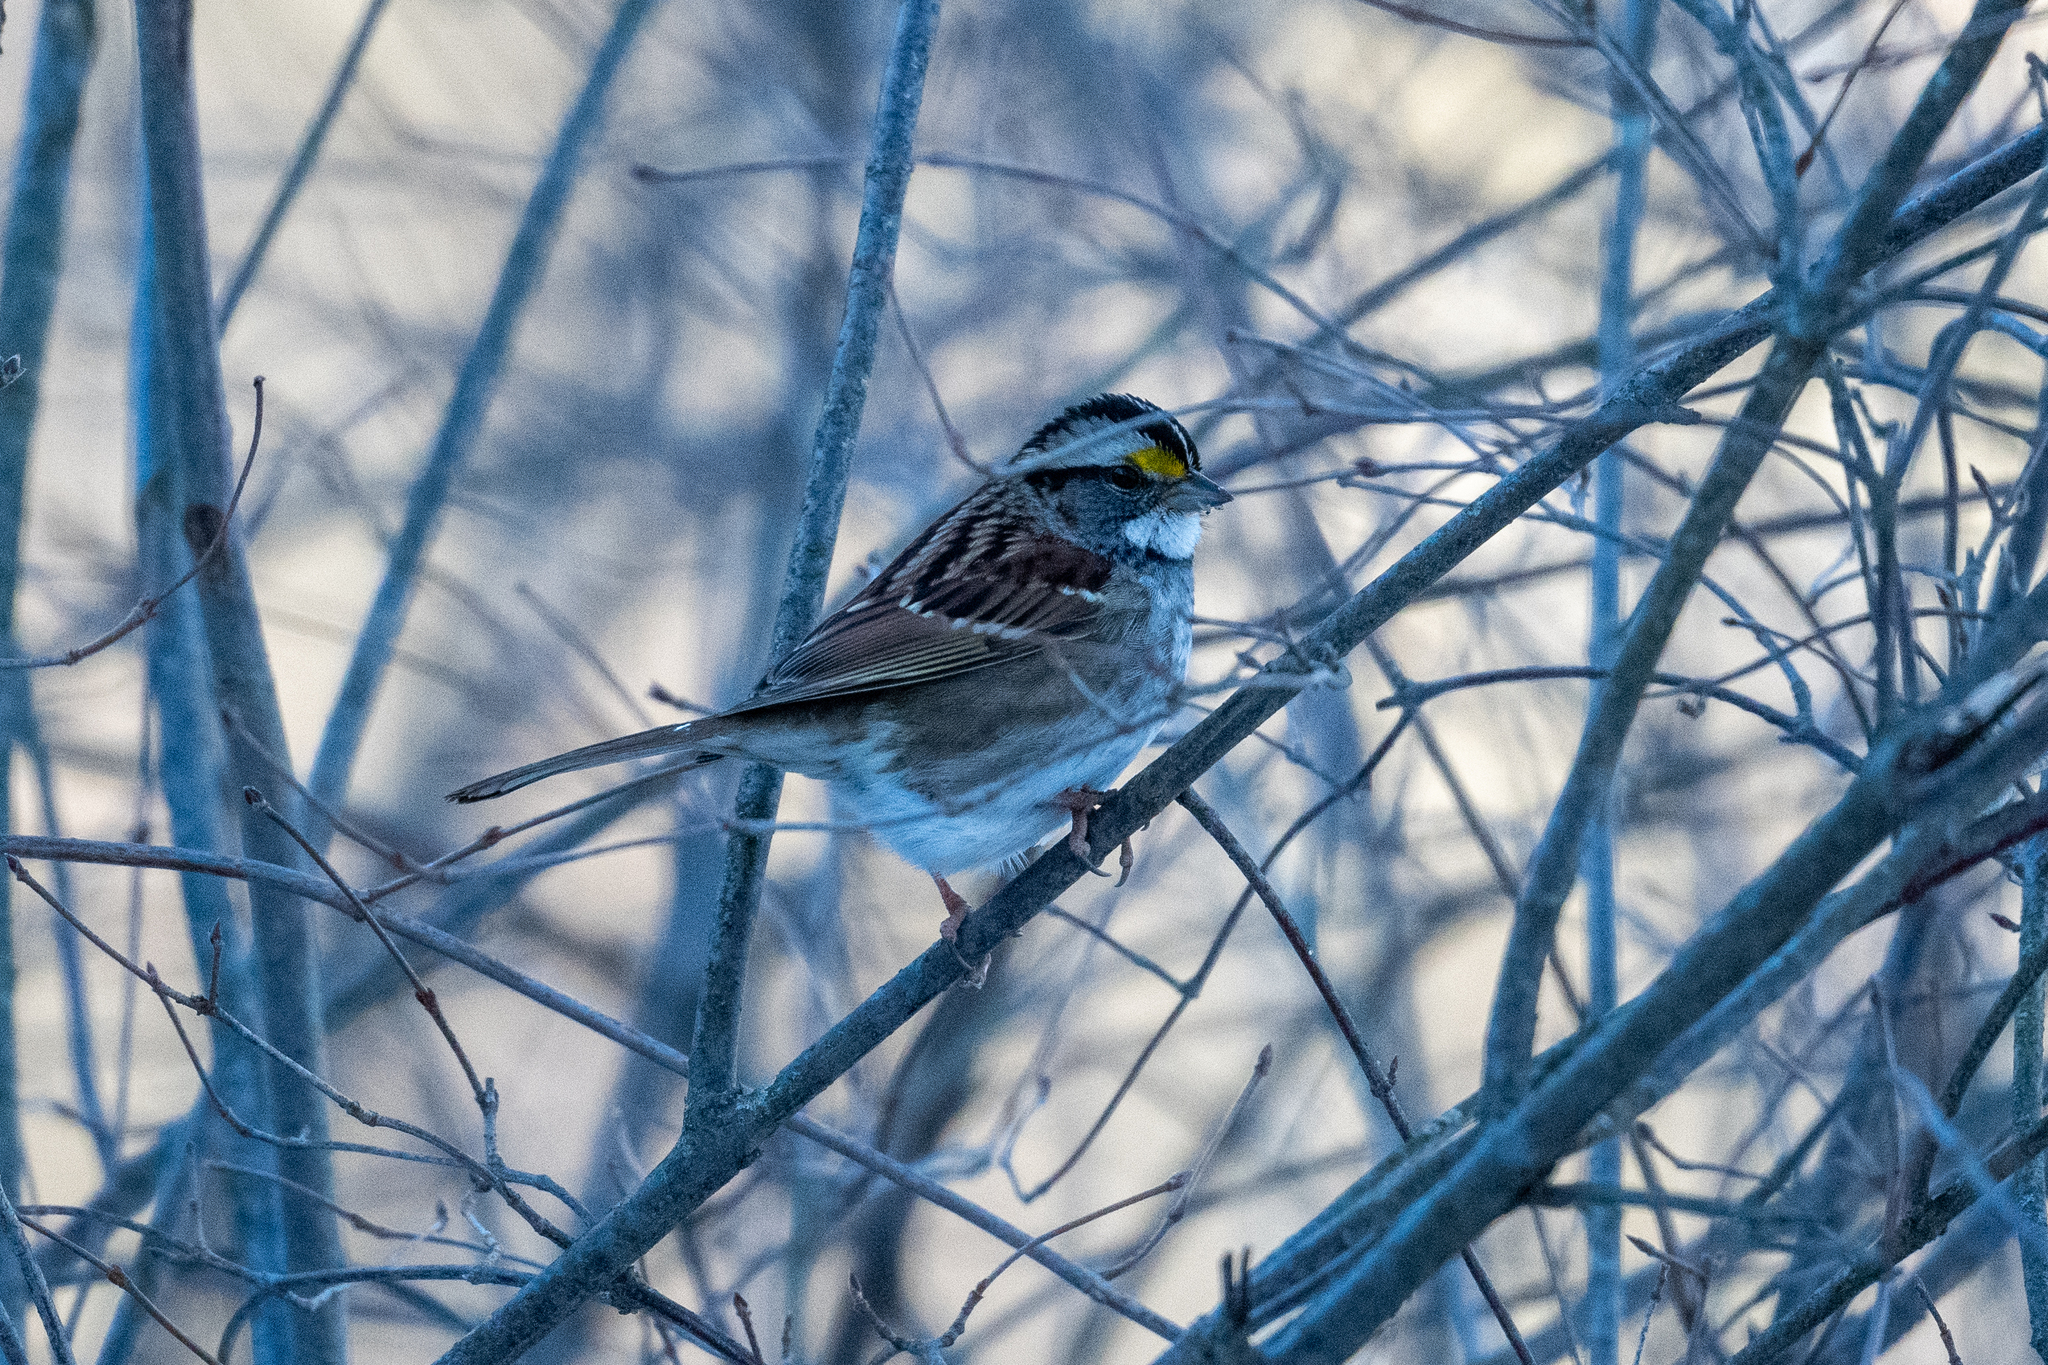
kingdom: Animalia
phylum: Chordata
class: Aves
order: Passeriformes
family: Passerellidae
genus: Zonotrichia
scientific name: Zonotrichia albicollis
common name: White-throated sparrow
